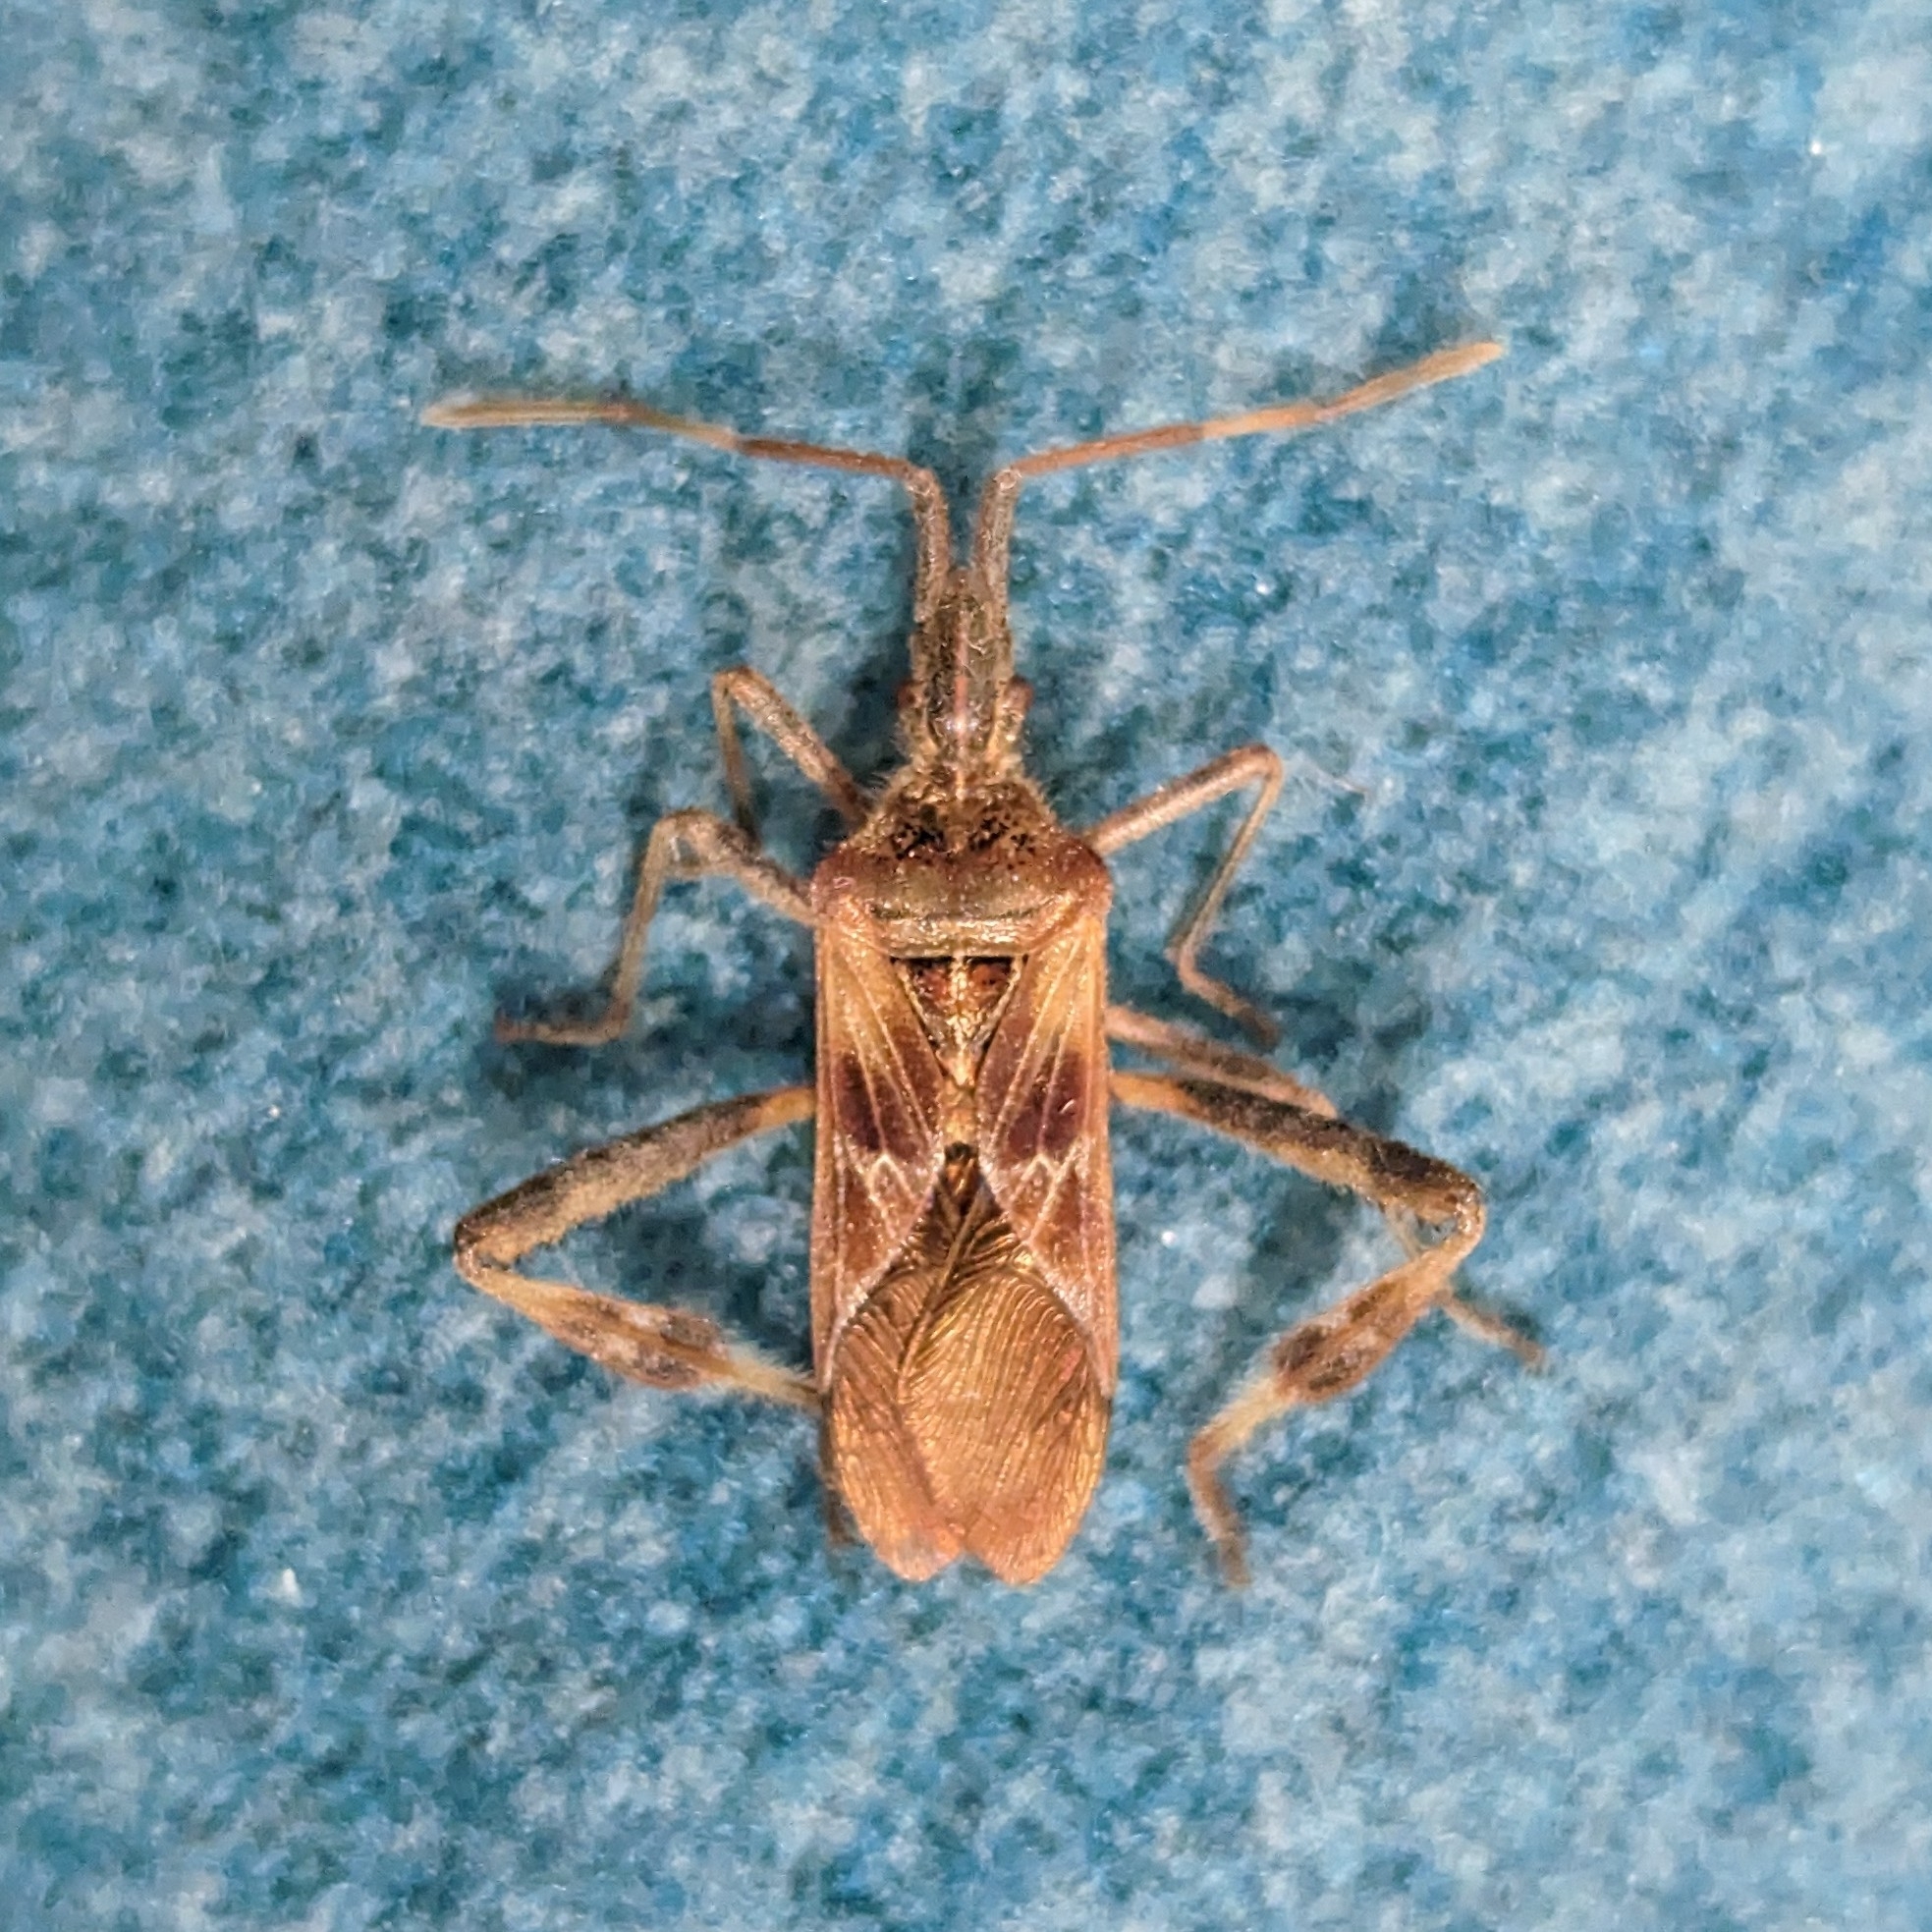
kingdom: Animalia
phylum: Arthropoda
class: Insecta
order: Hemiptera
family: Coreidae
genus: Leptoglossus
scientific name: Leptoglossus occidentalis
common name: Western conifer-seed bug
